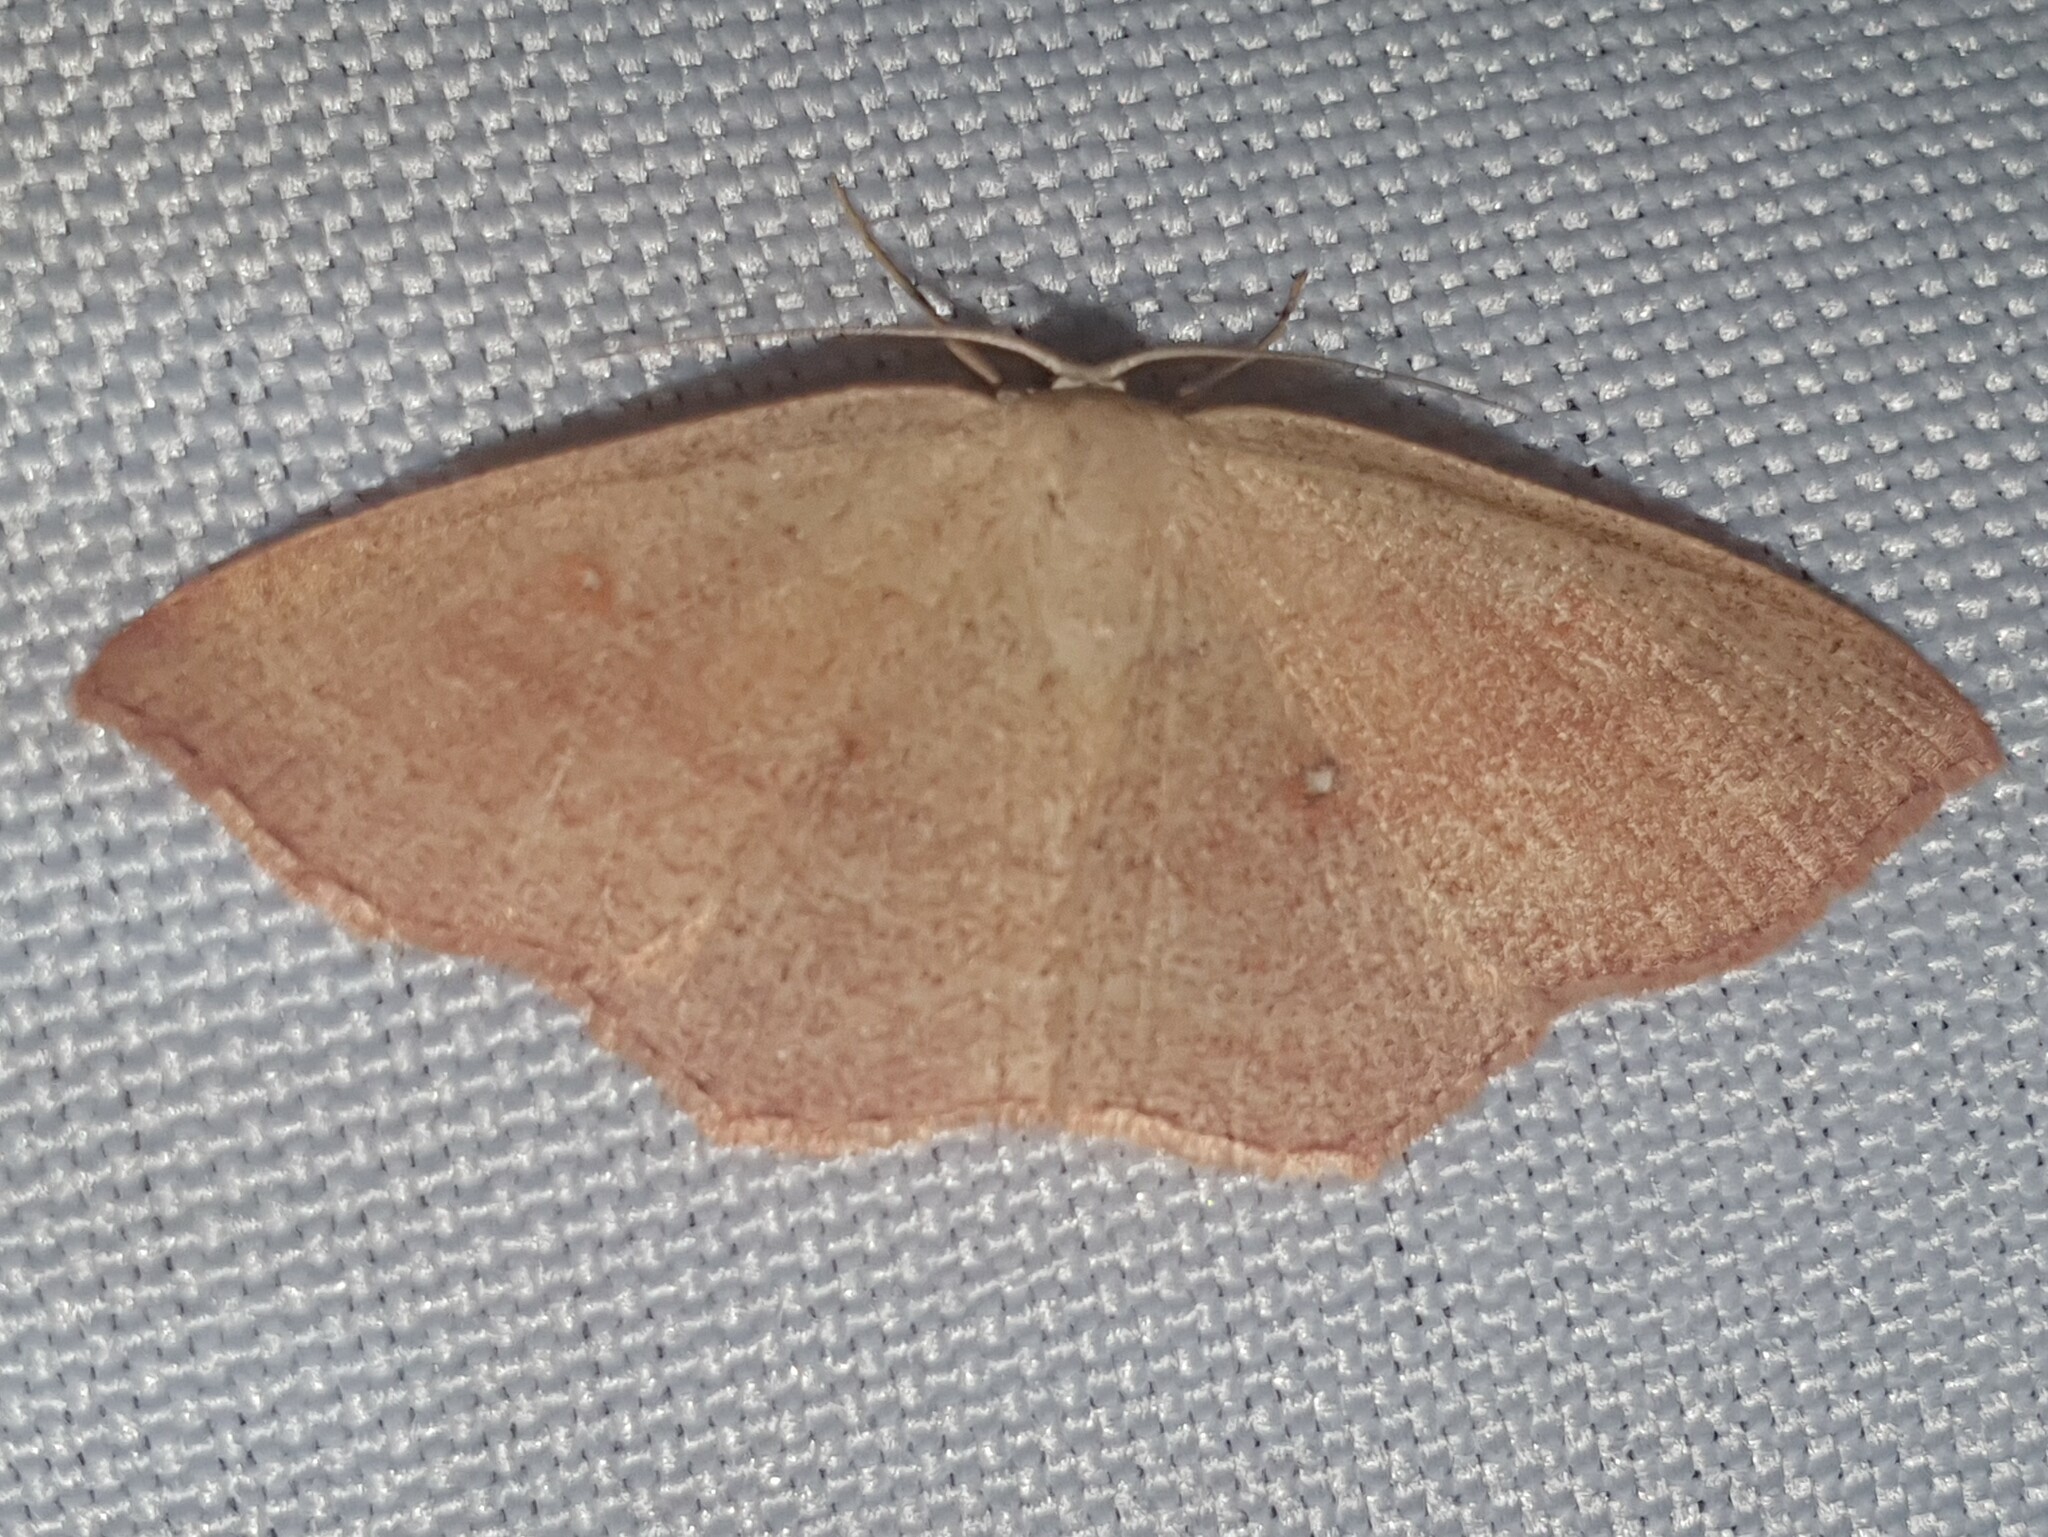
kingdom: Animalia
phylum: Arthropoda
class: Insecta
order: Lepidoptera
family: Geometridae
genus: Cyclophora
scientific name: Cyclophora linearia
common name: Clay triple-lines
